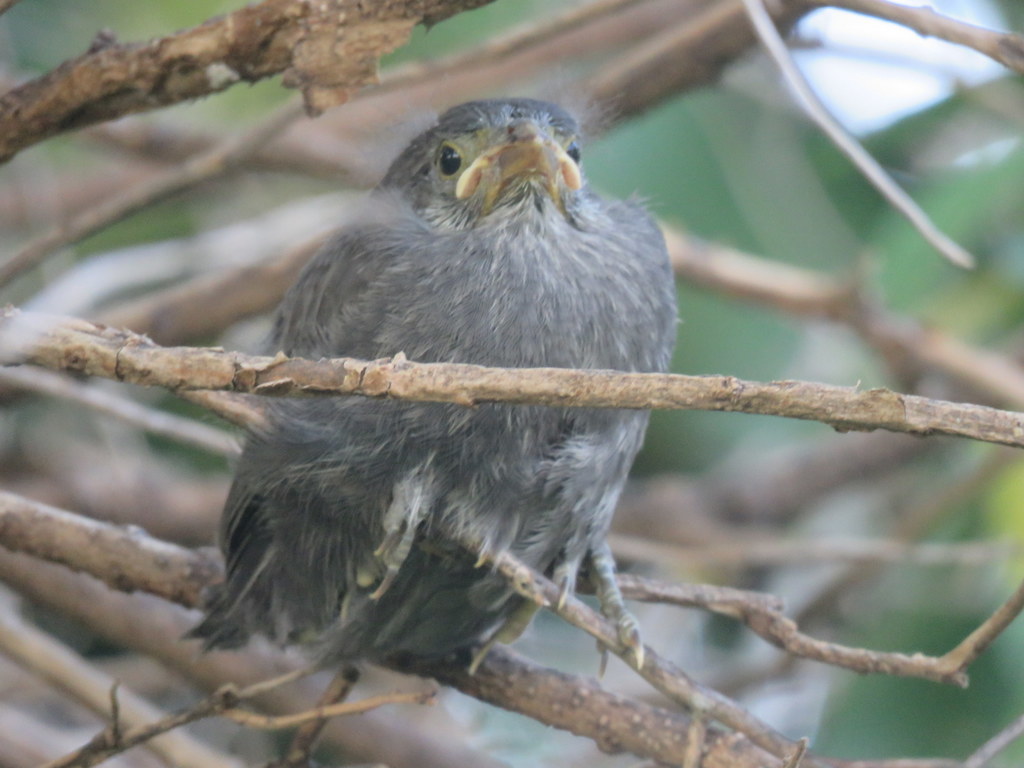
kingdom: Animalia
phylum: Chordata
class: Aves
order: Passeriformes
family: Icteridae
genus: Molothrus
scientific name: Molothrus bonariensis
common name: Shiny cowbird
